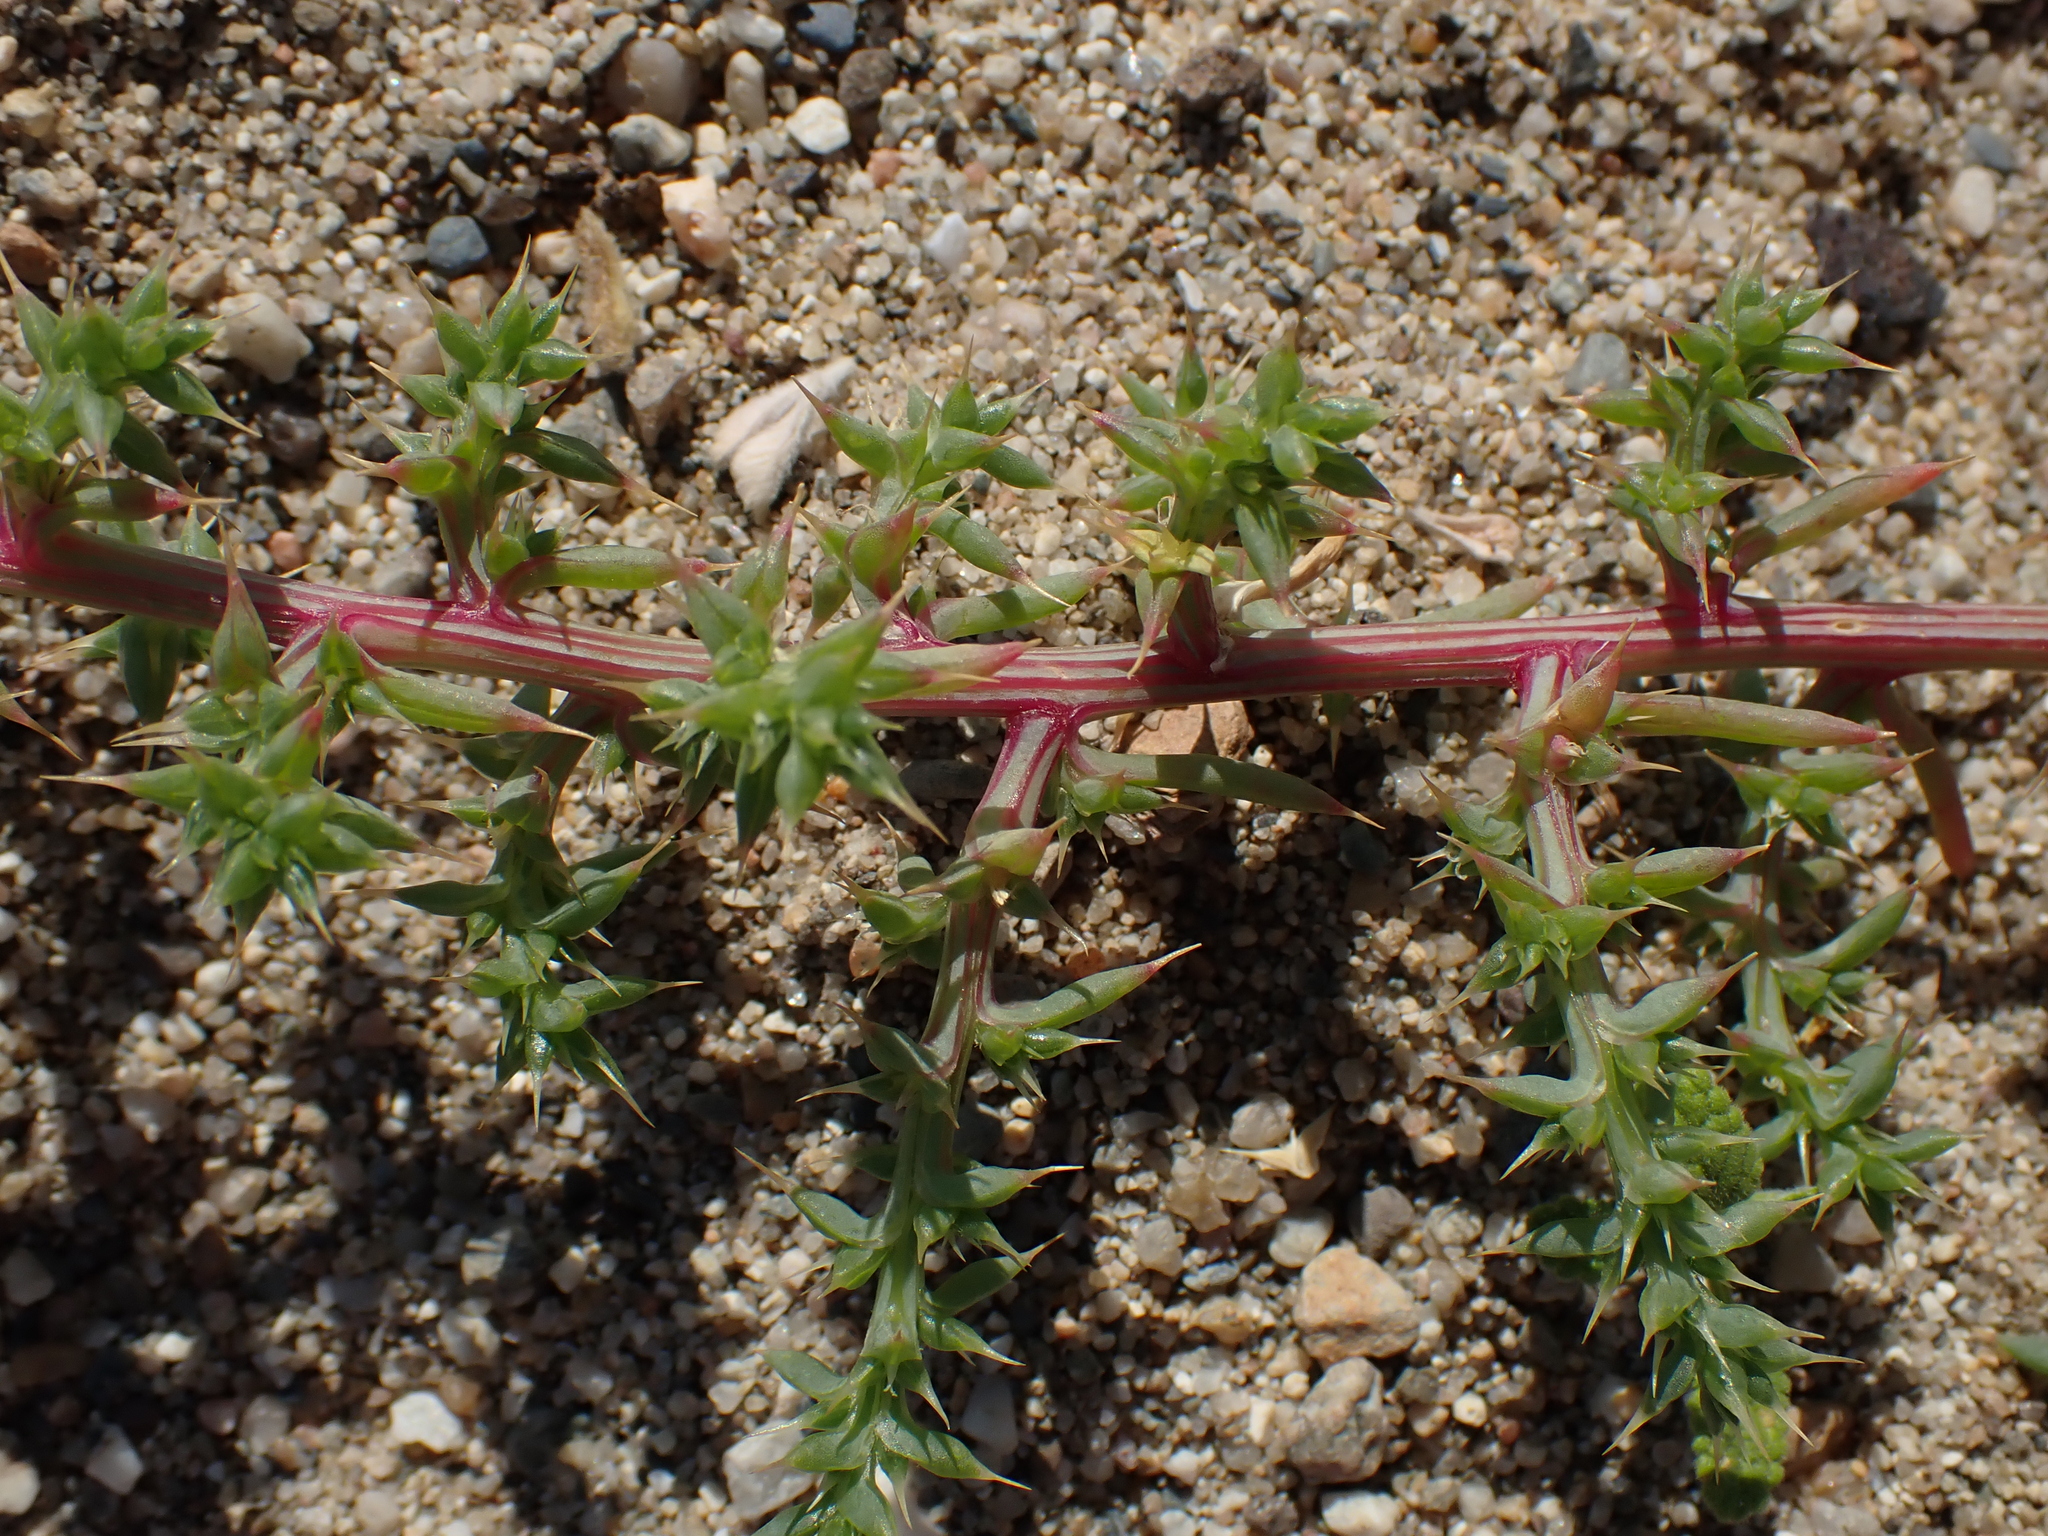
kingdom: Plantae
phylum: Tracheophyta
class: Magnoliopsida
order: Caryophyllales
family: Amaranthaceae
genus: Salsola
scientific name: Salsola kali
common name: Saltwort
